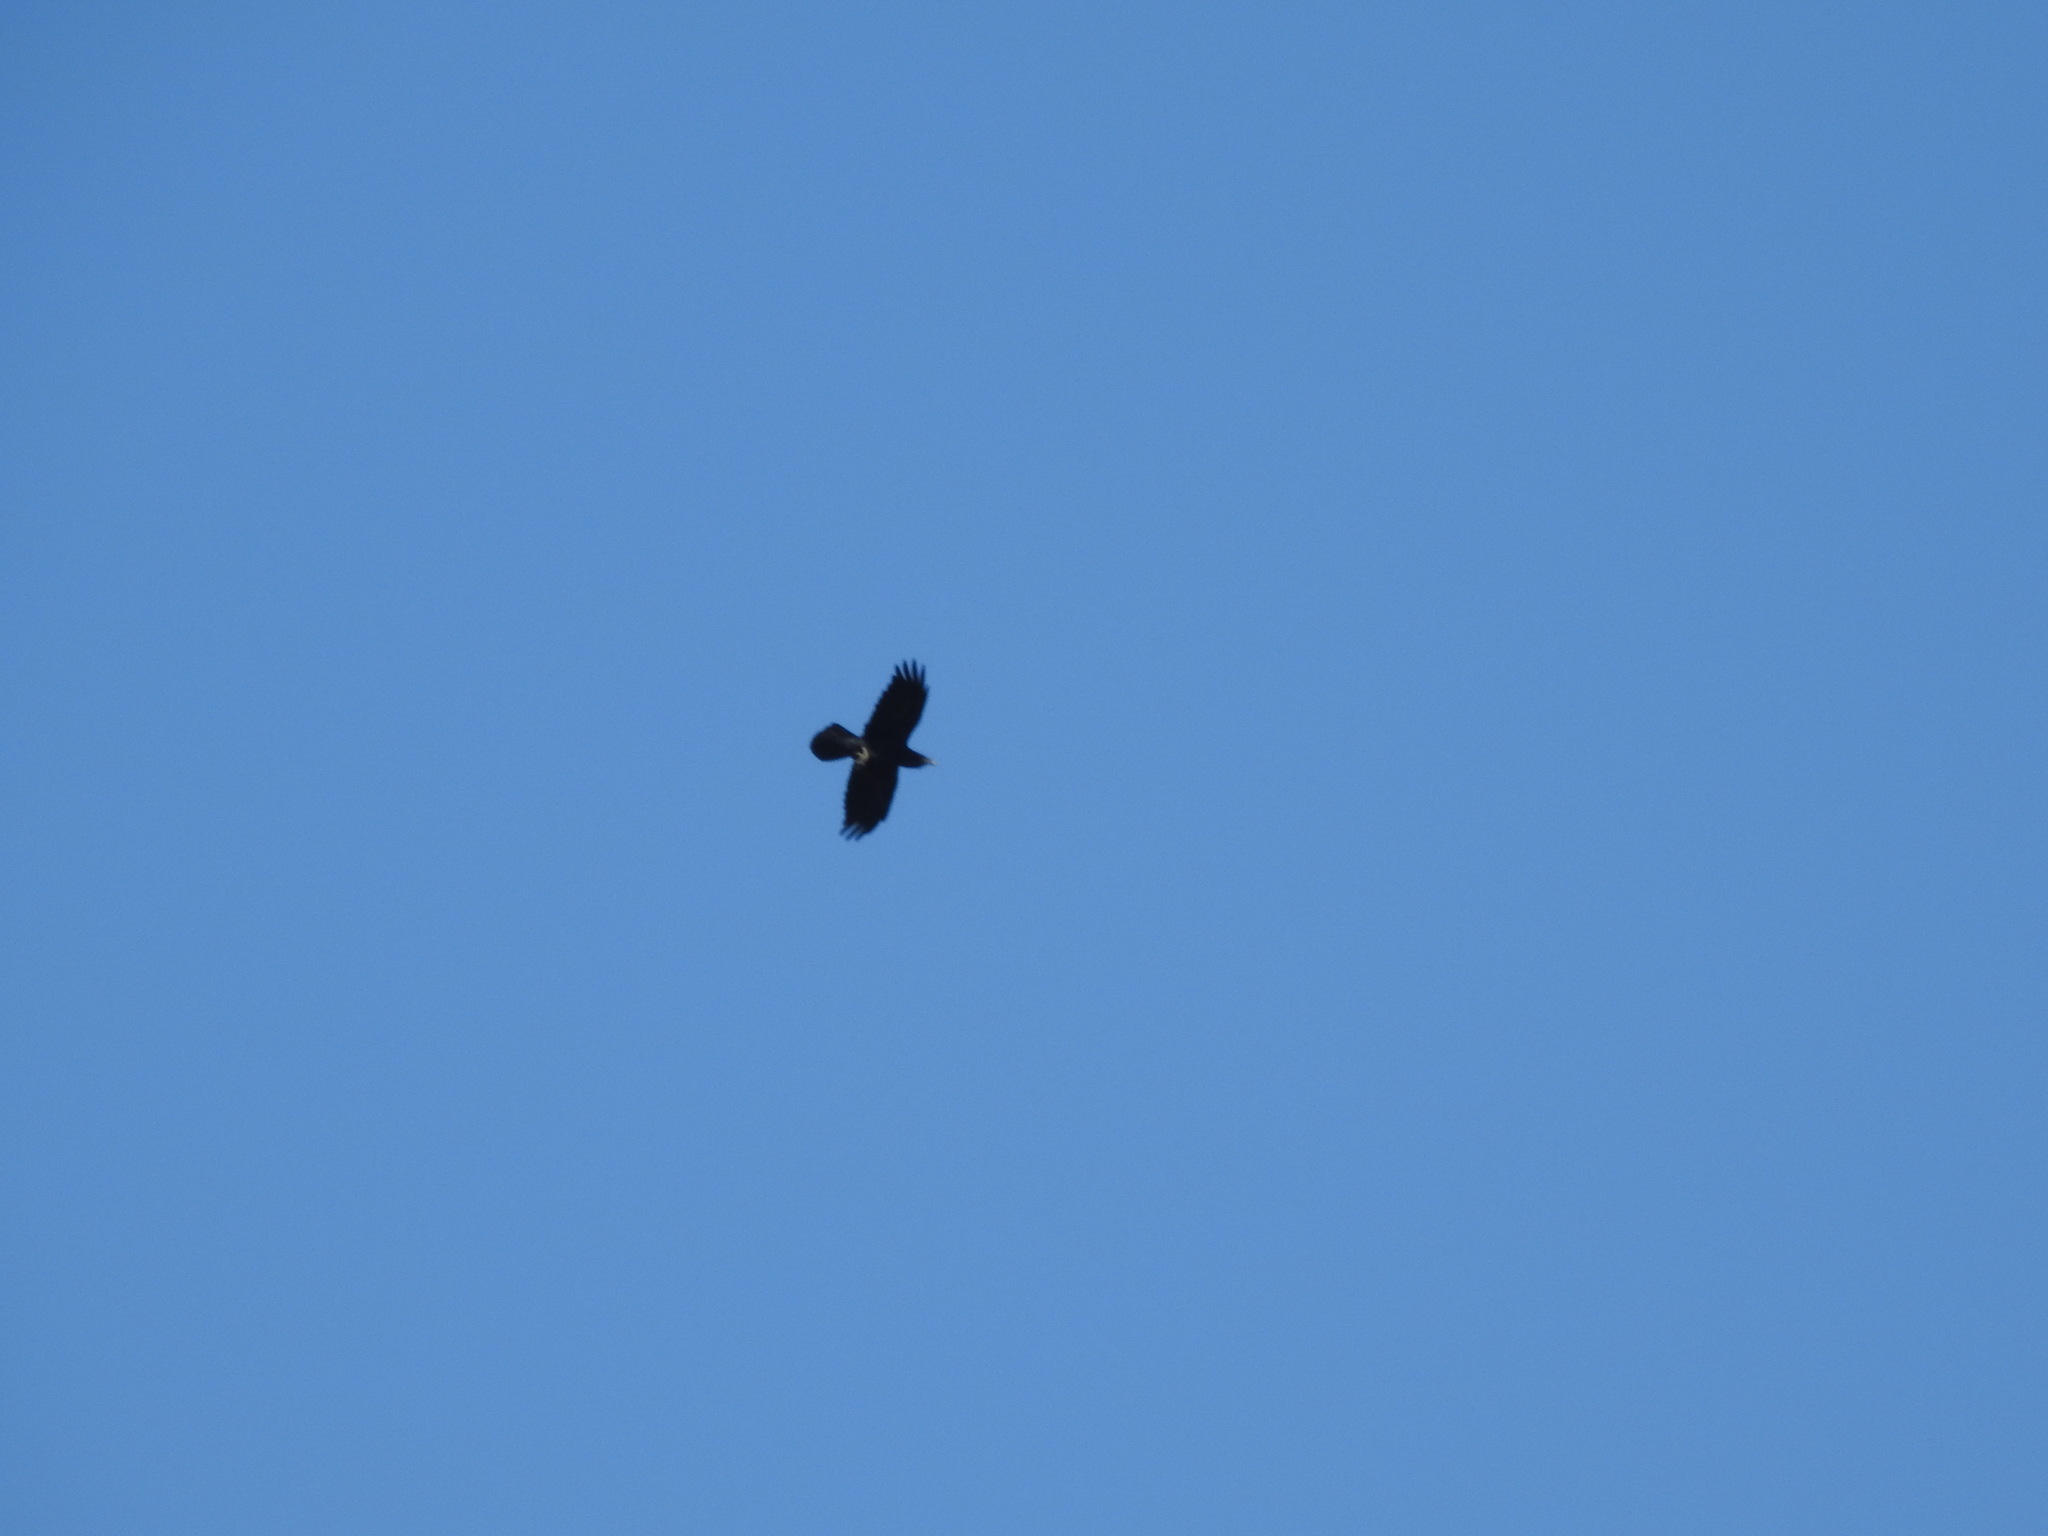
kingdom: Animalia
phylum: Chordata
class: Aves
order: Passeriformes
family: Corvidae
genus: Corvus
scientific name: Corvus corax
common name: Common raven
